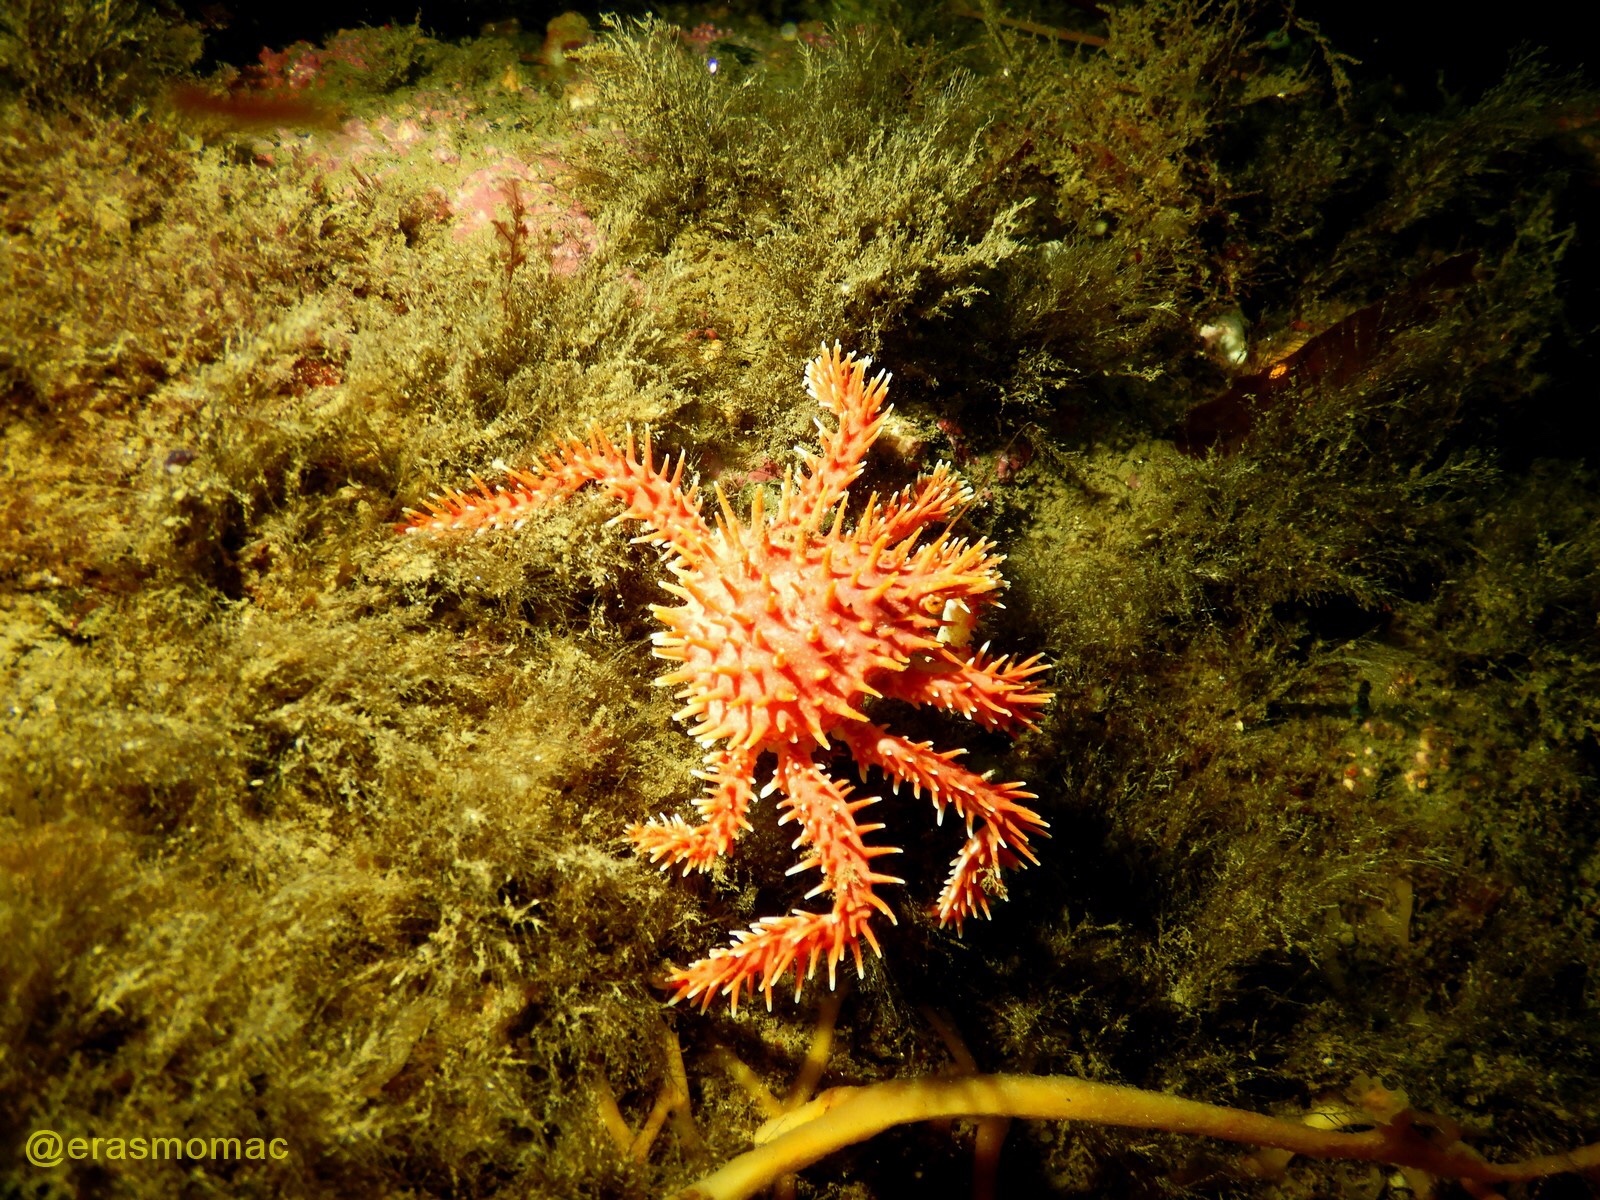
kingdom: Animalia
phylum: Arthropoda
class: Malacostraca
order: Decapoda
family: Lithodidae
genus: Lithodes
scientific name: Lithodes santolla
